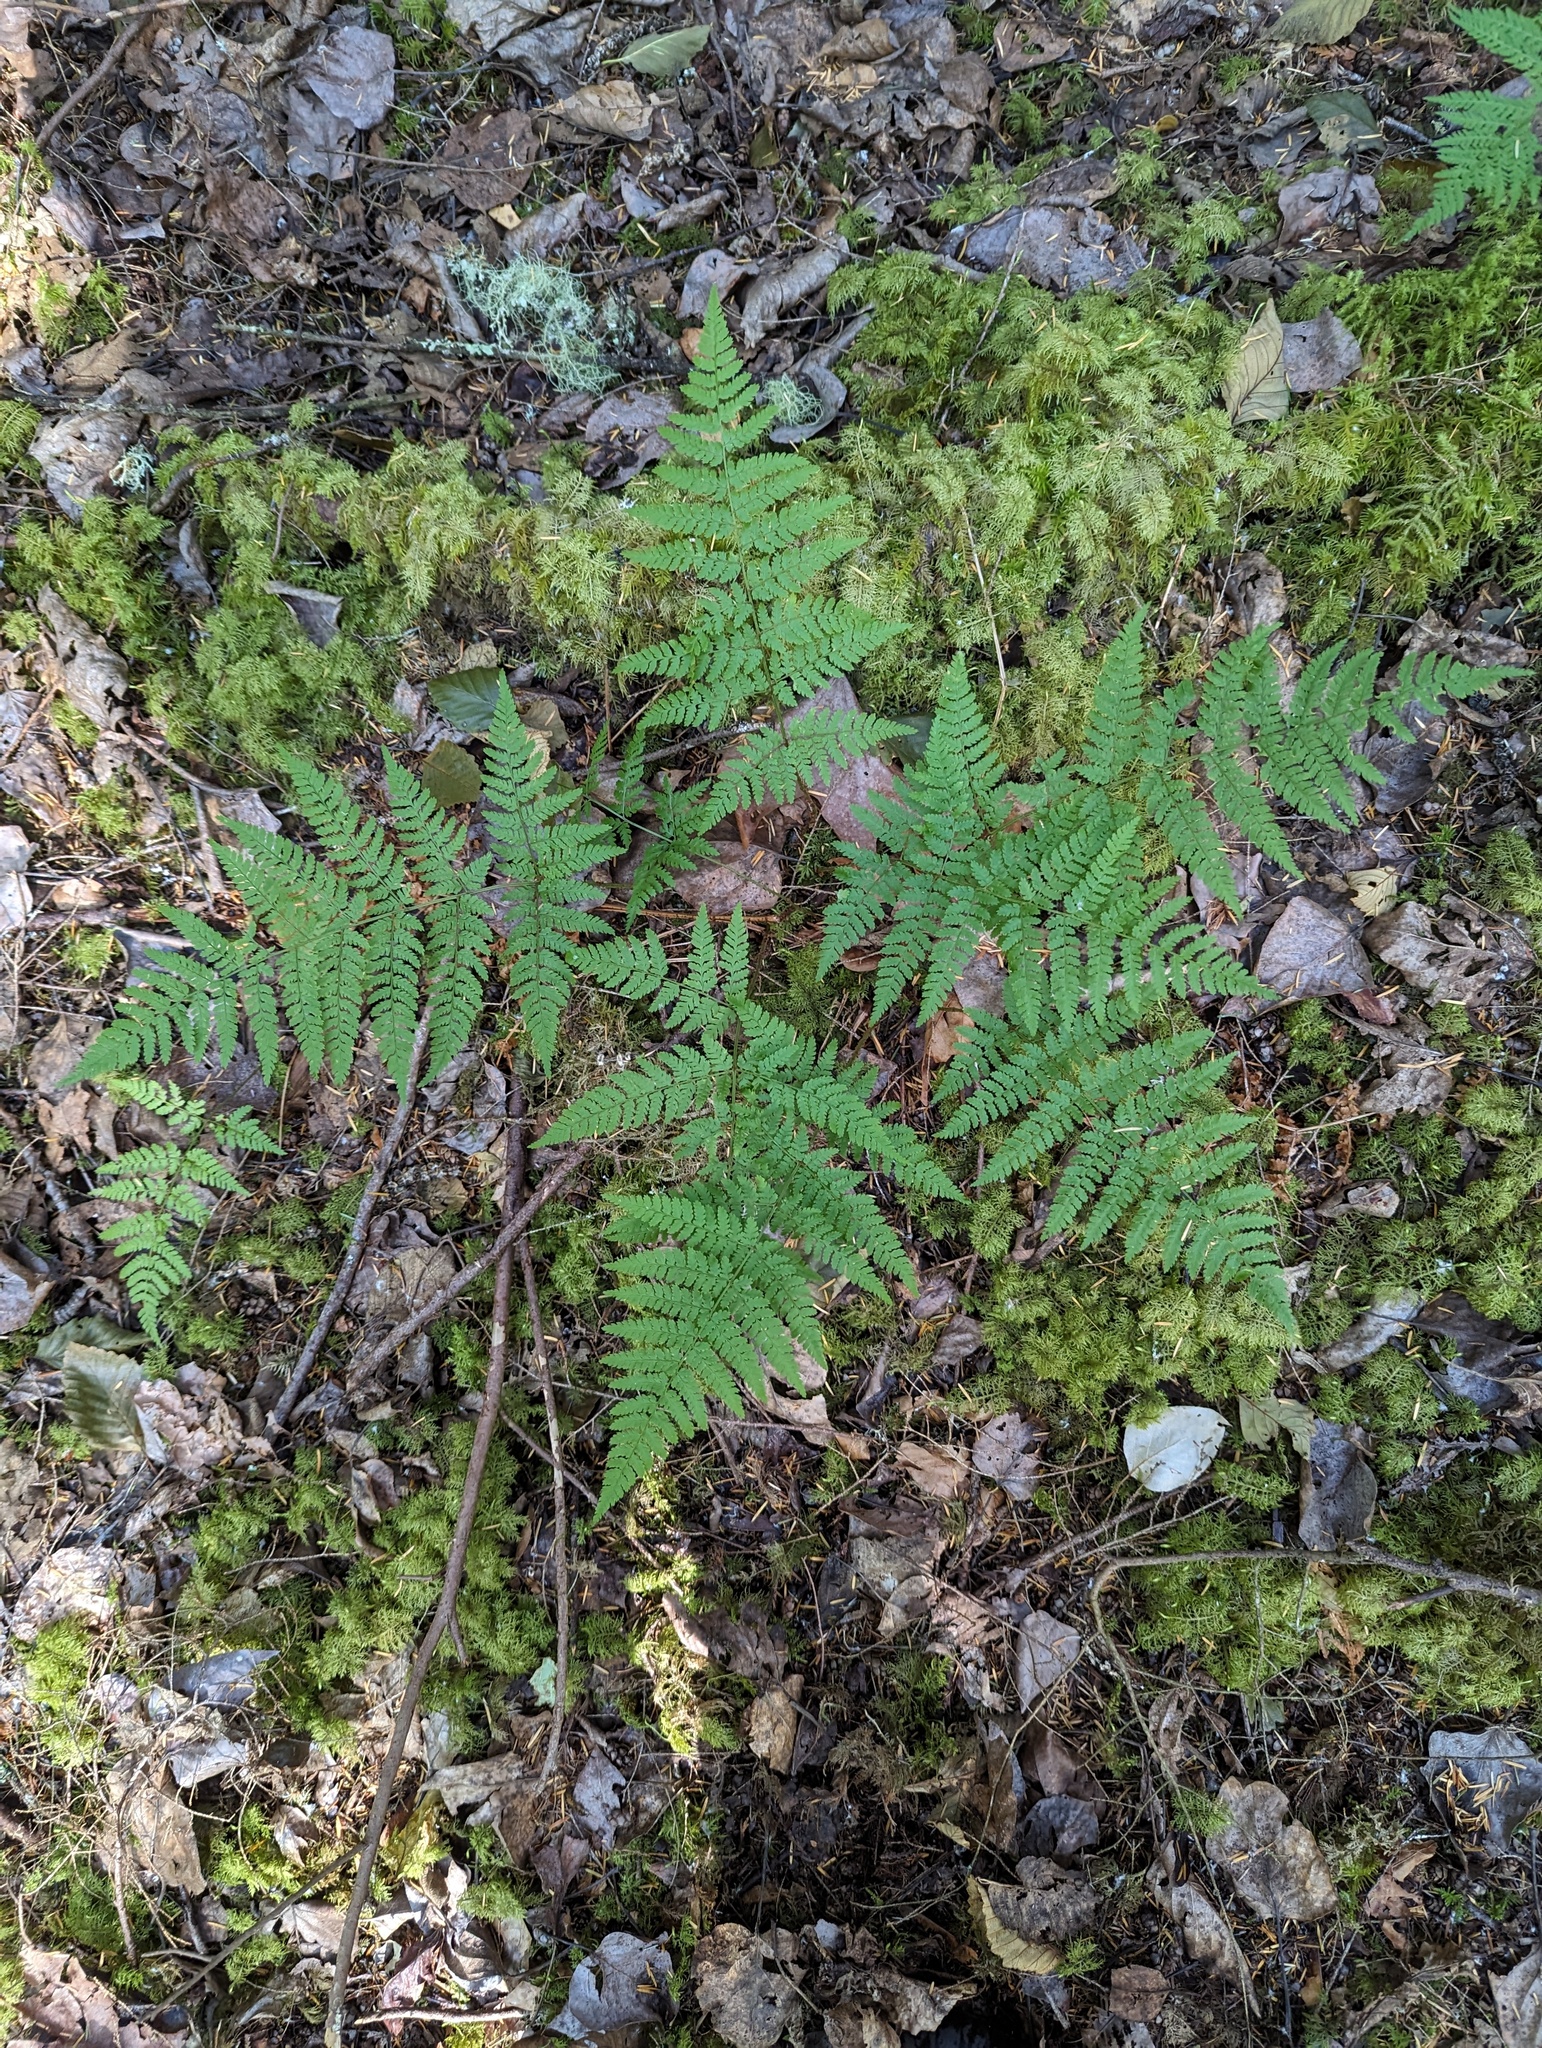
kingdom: Plantae
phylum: Tracheophyta
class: Polypodiopsida
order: Polypodiales
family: Dryopteridaceae
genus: Dryopteris
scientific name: Dryopteris expansa
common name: Northern buckler fern
